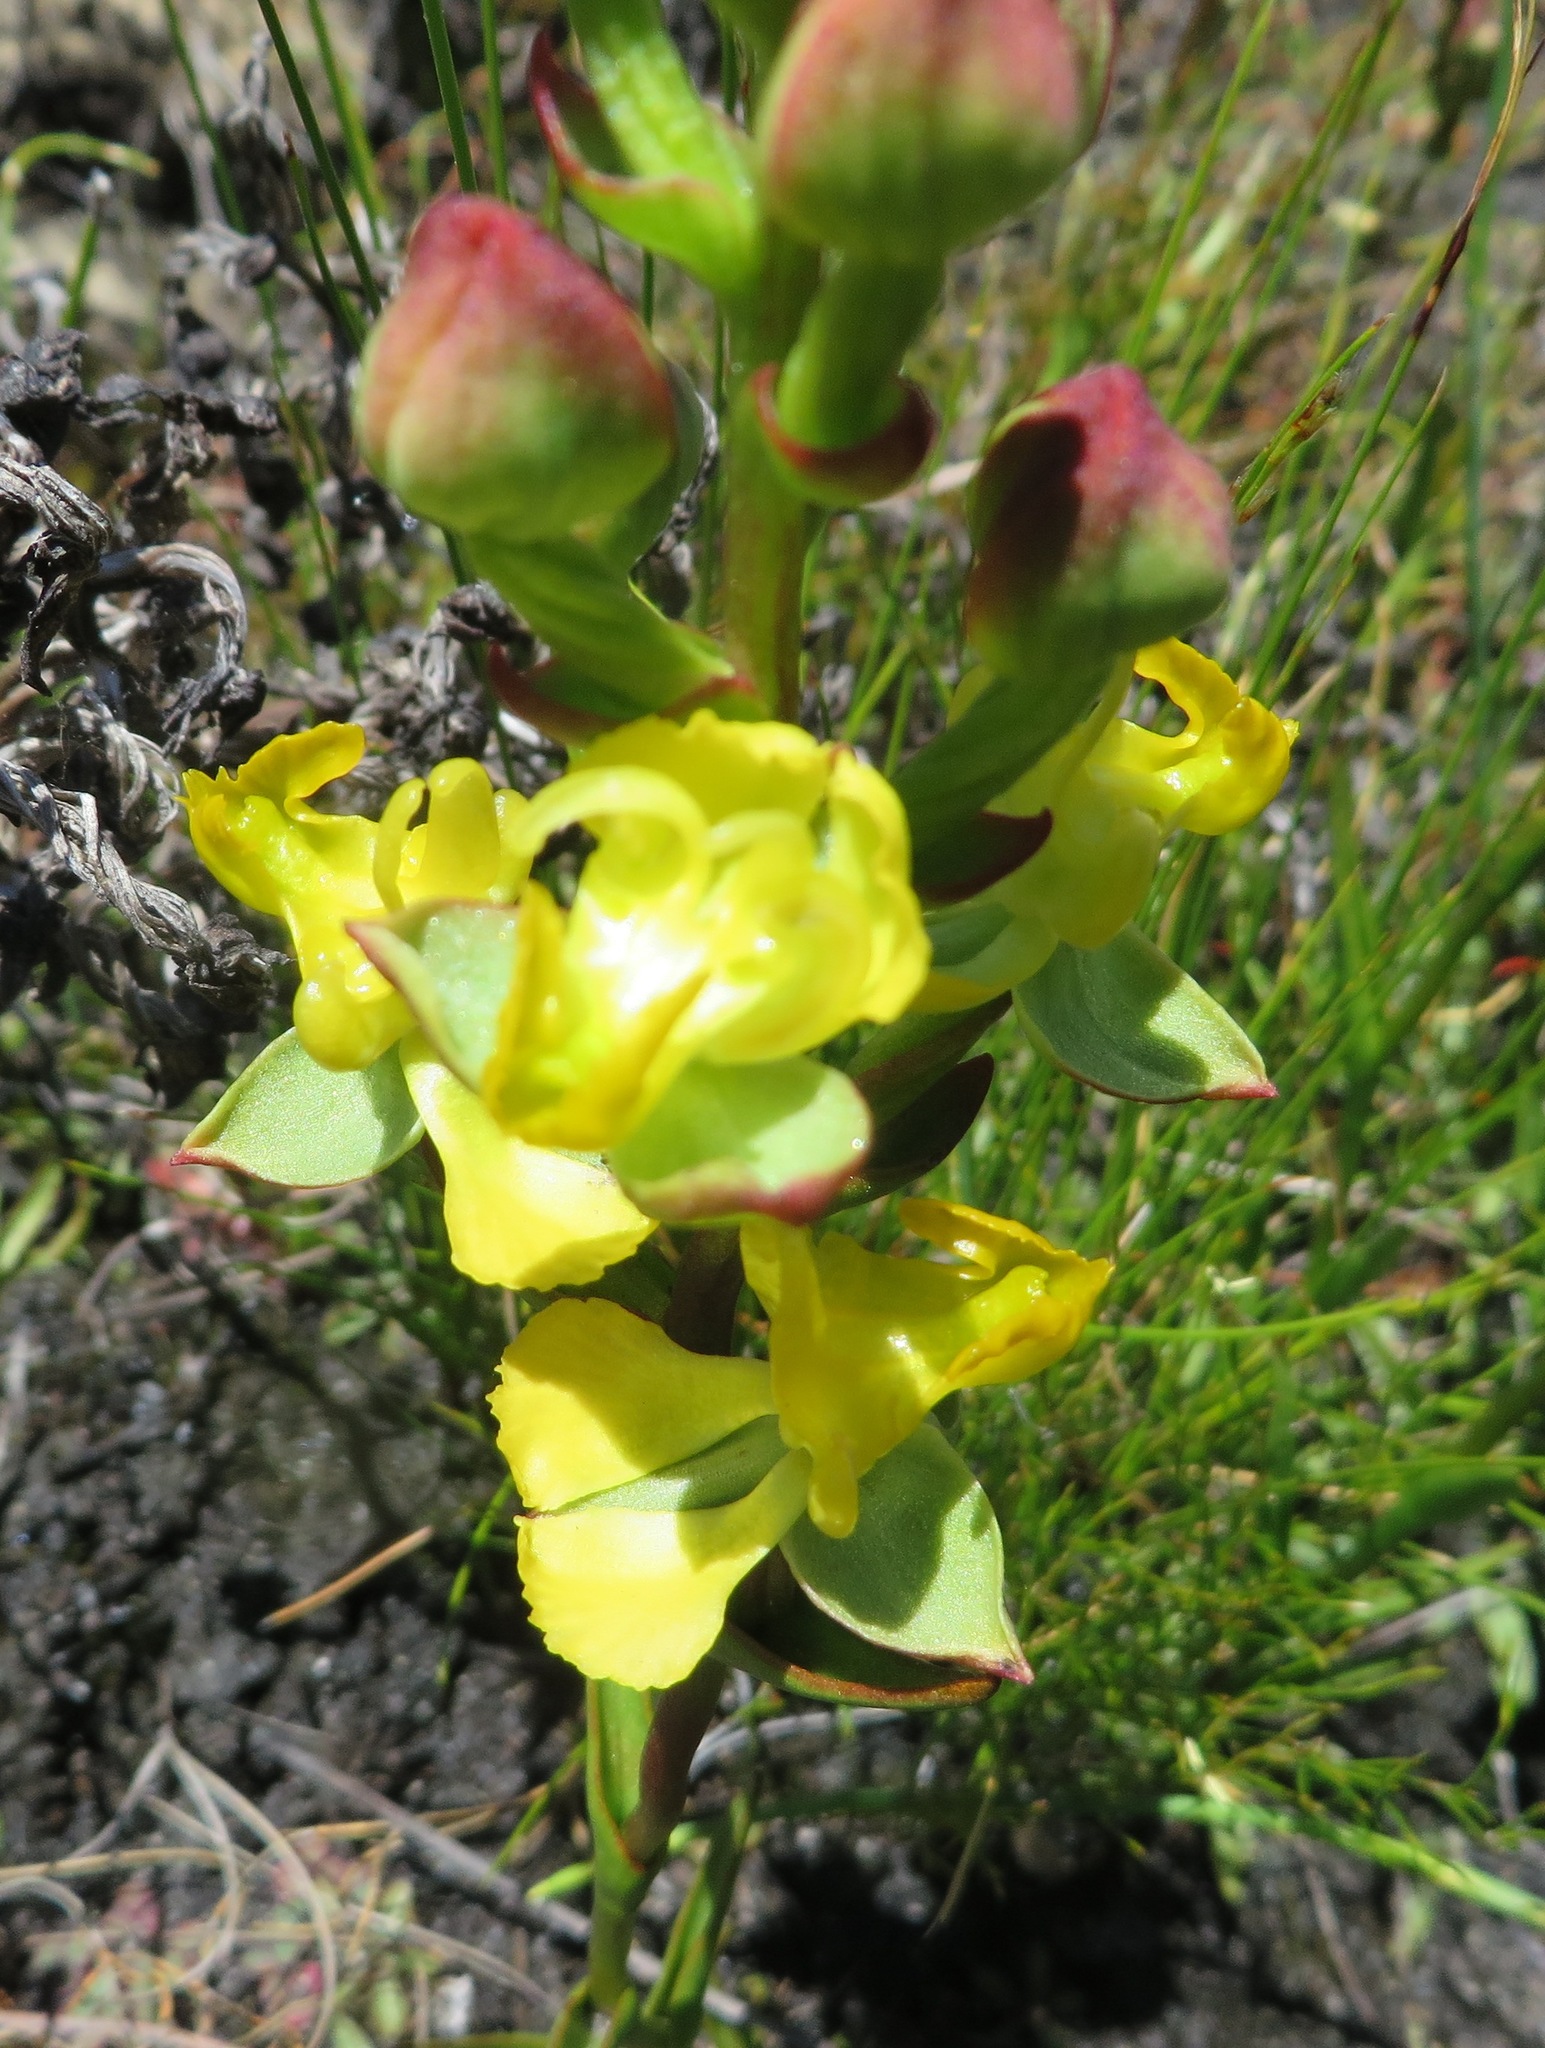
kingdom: Plantae
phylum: Tracheophyta
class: Liliopsida
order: Asparagales
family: Orchidaceae
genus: Ceratandra
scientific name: Ceratandra bicolor
